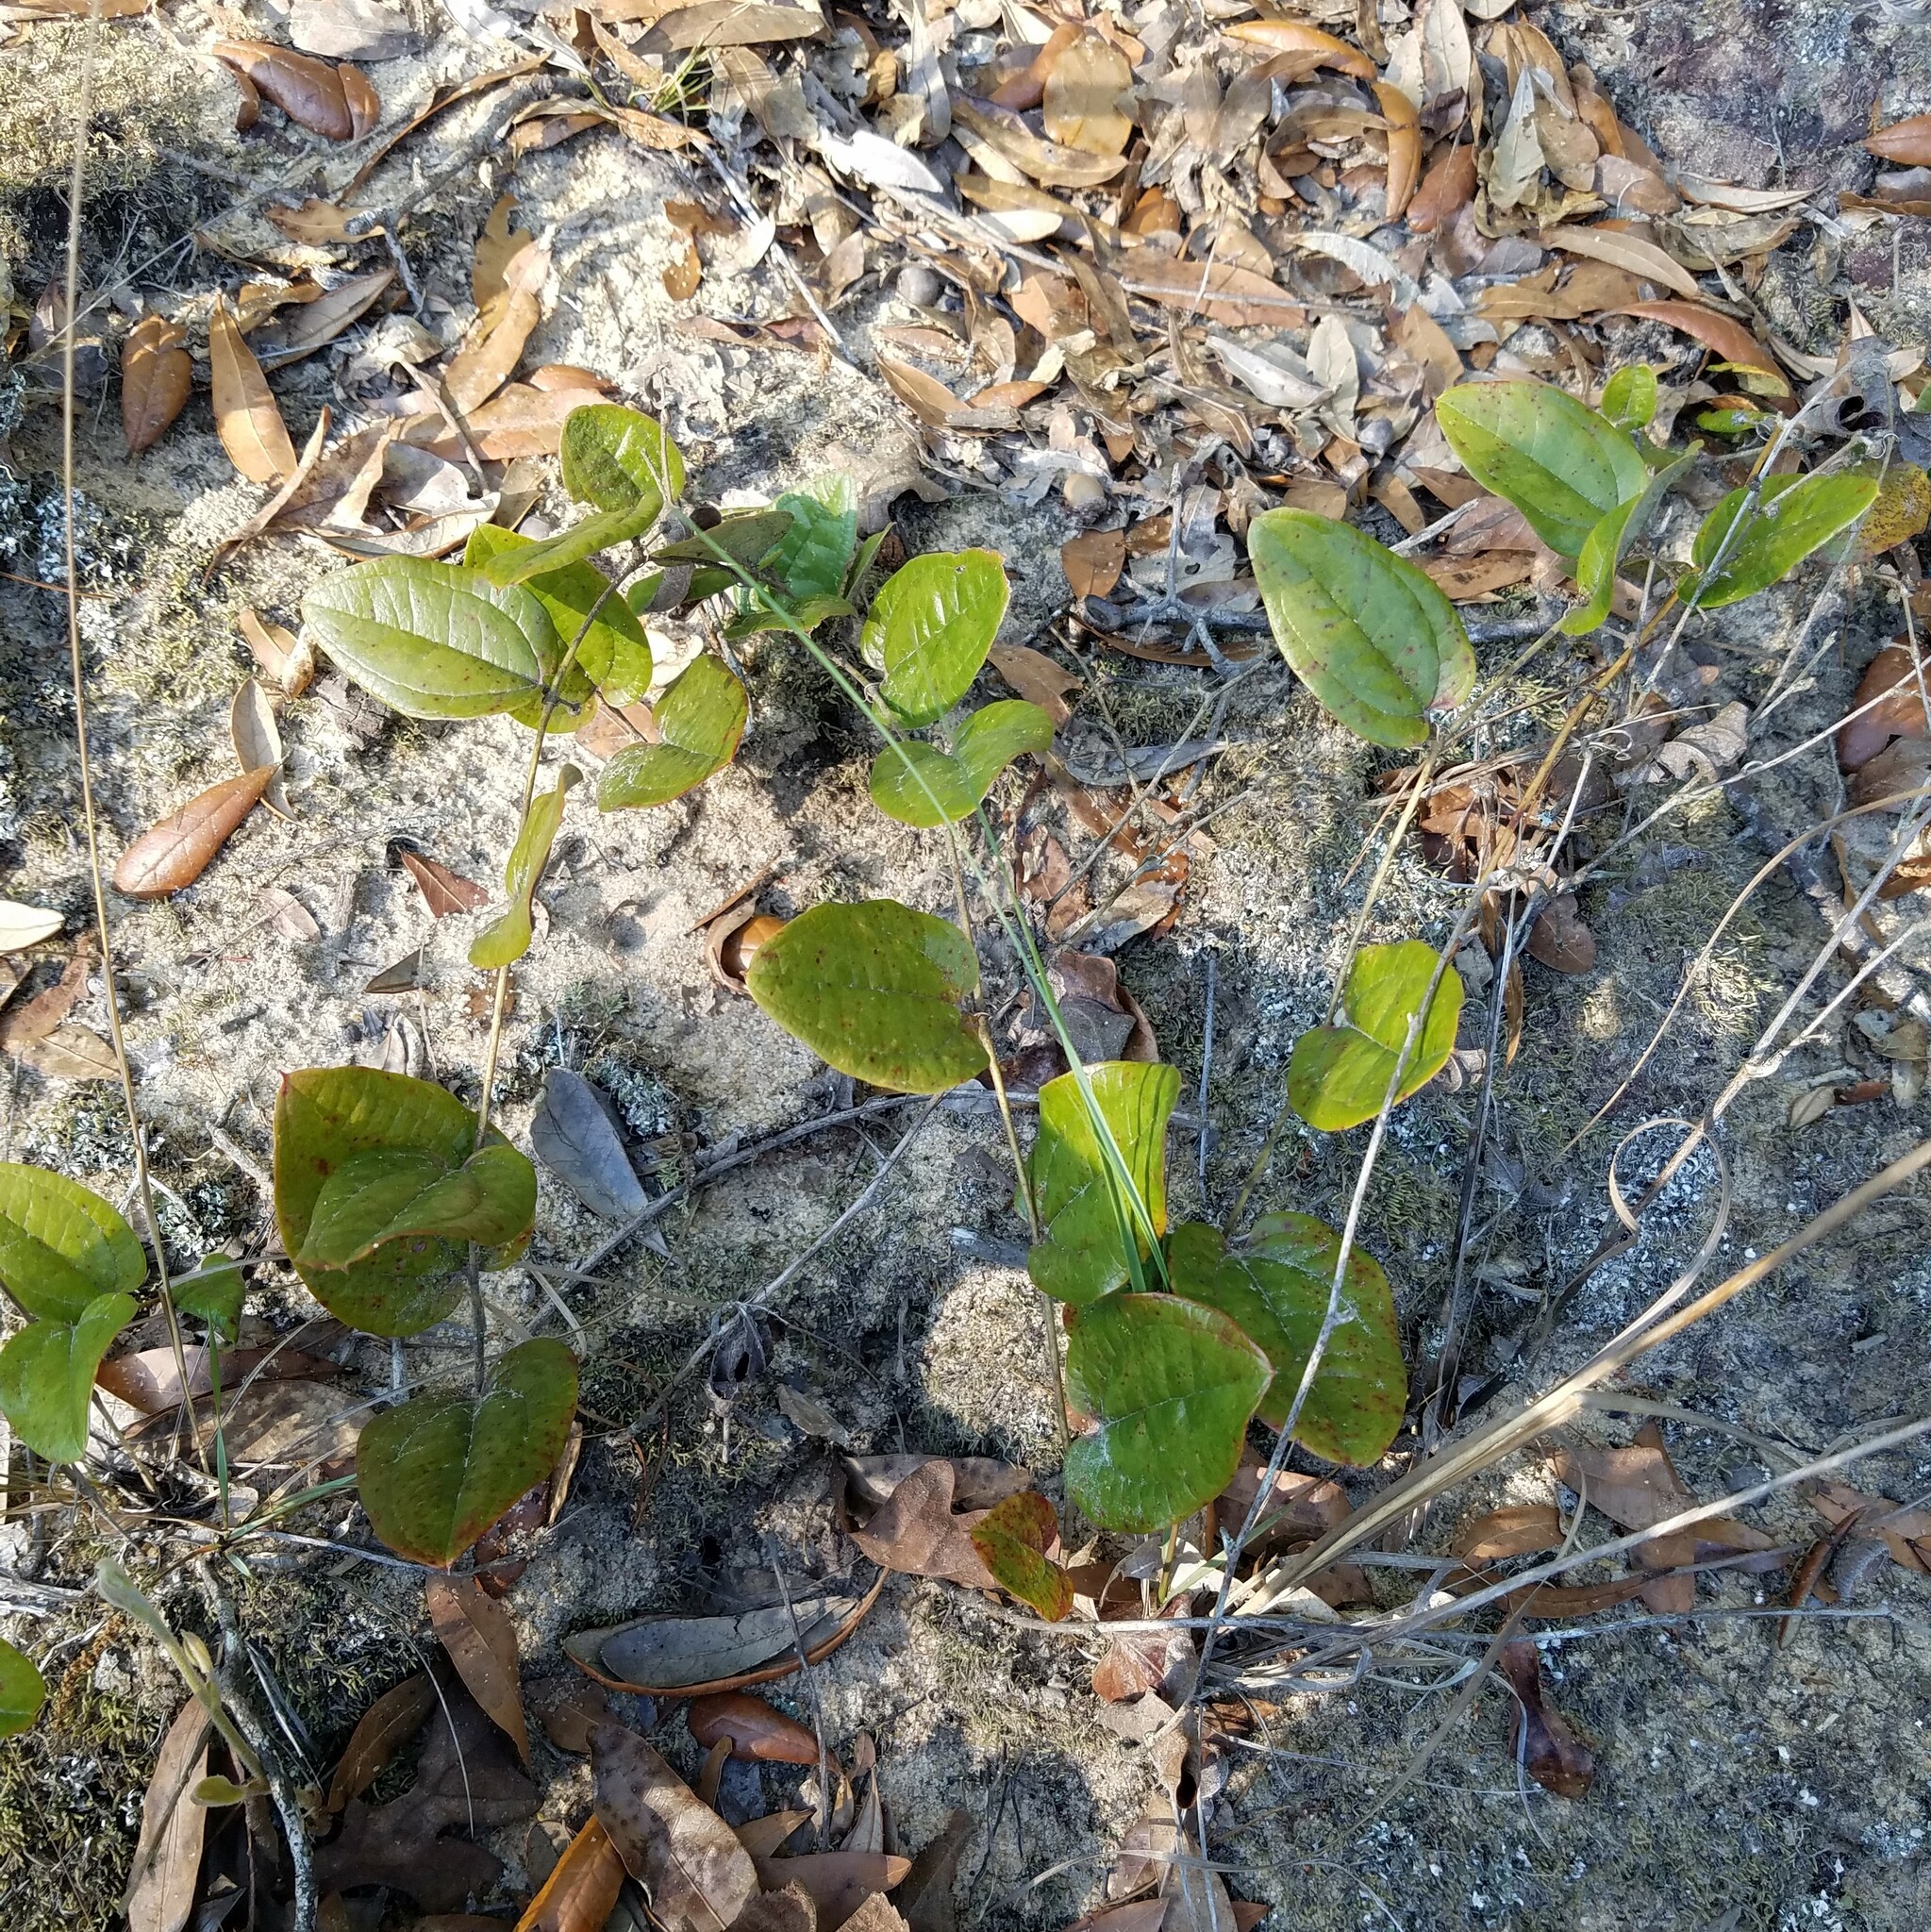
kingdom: Plantae
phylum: Tracheophyta
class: Liliopsida
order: Liliales
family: Smilacaceae
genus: Smilax
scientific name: Smilax pumila
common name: Sarsaparilla-vine
